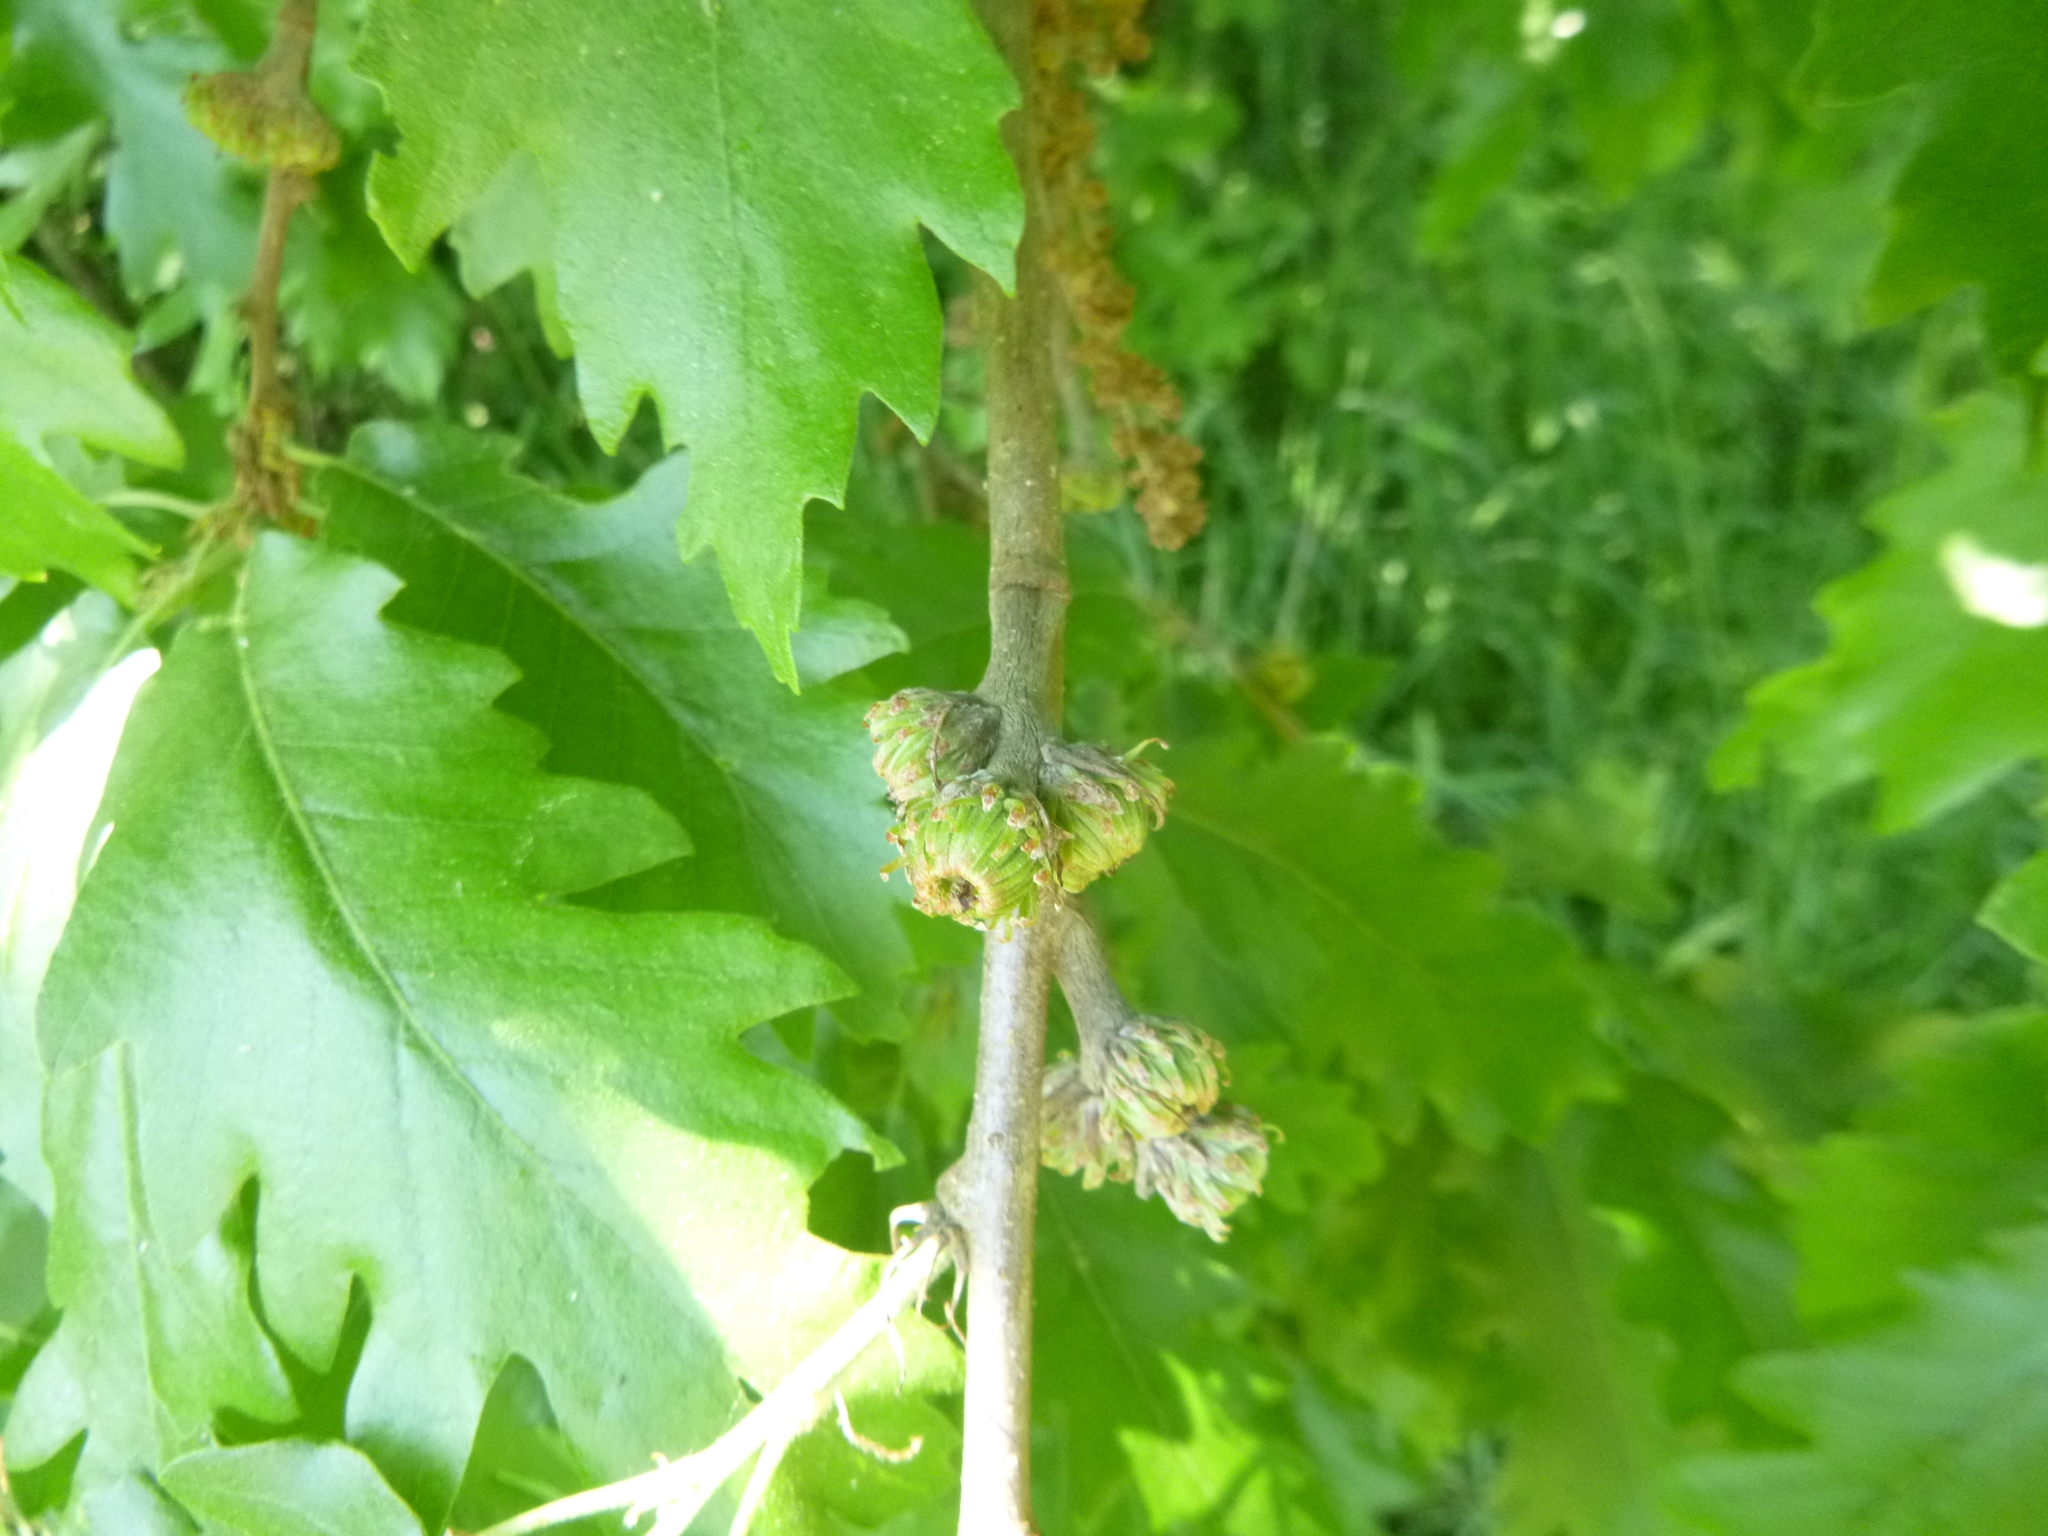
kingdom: Plantae
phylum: Tracheophyta
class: Magnoliopsida
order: Fagales
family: Fagaceae
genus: Quercus
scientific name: Quercus cerris
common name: Turkey oak
